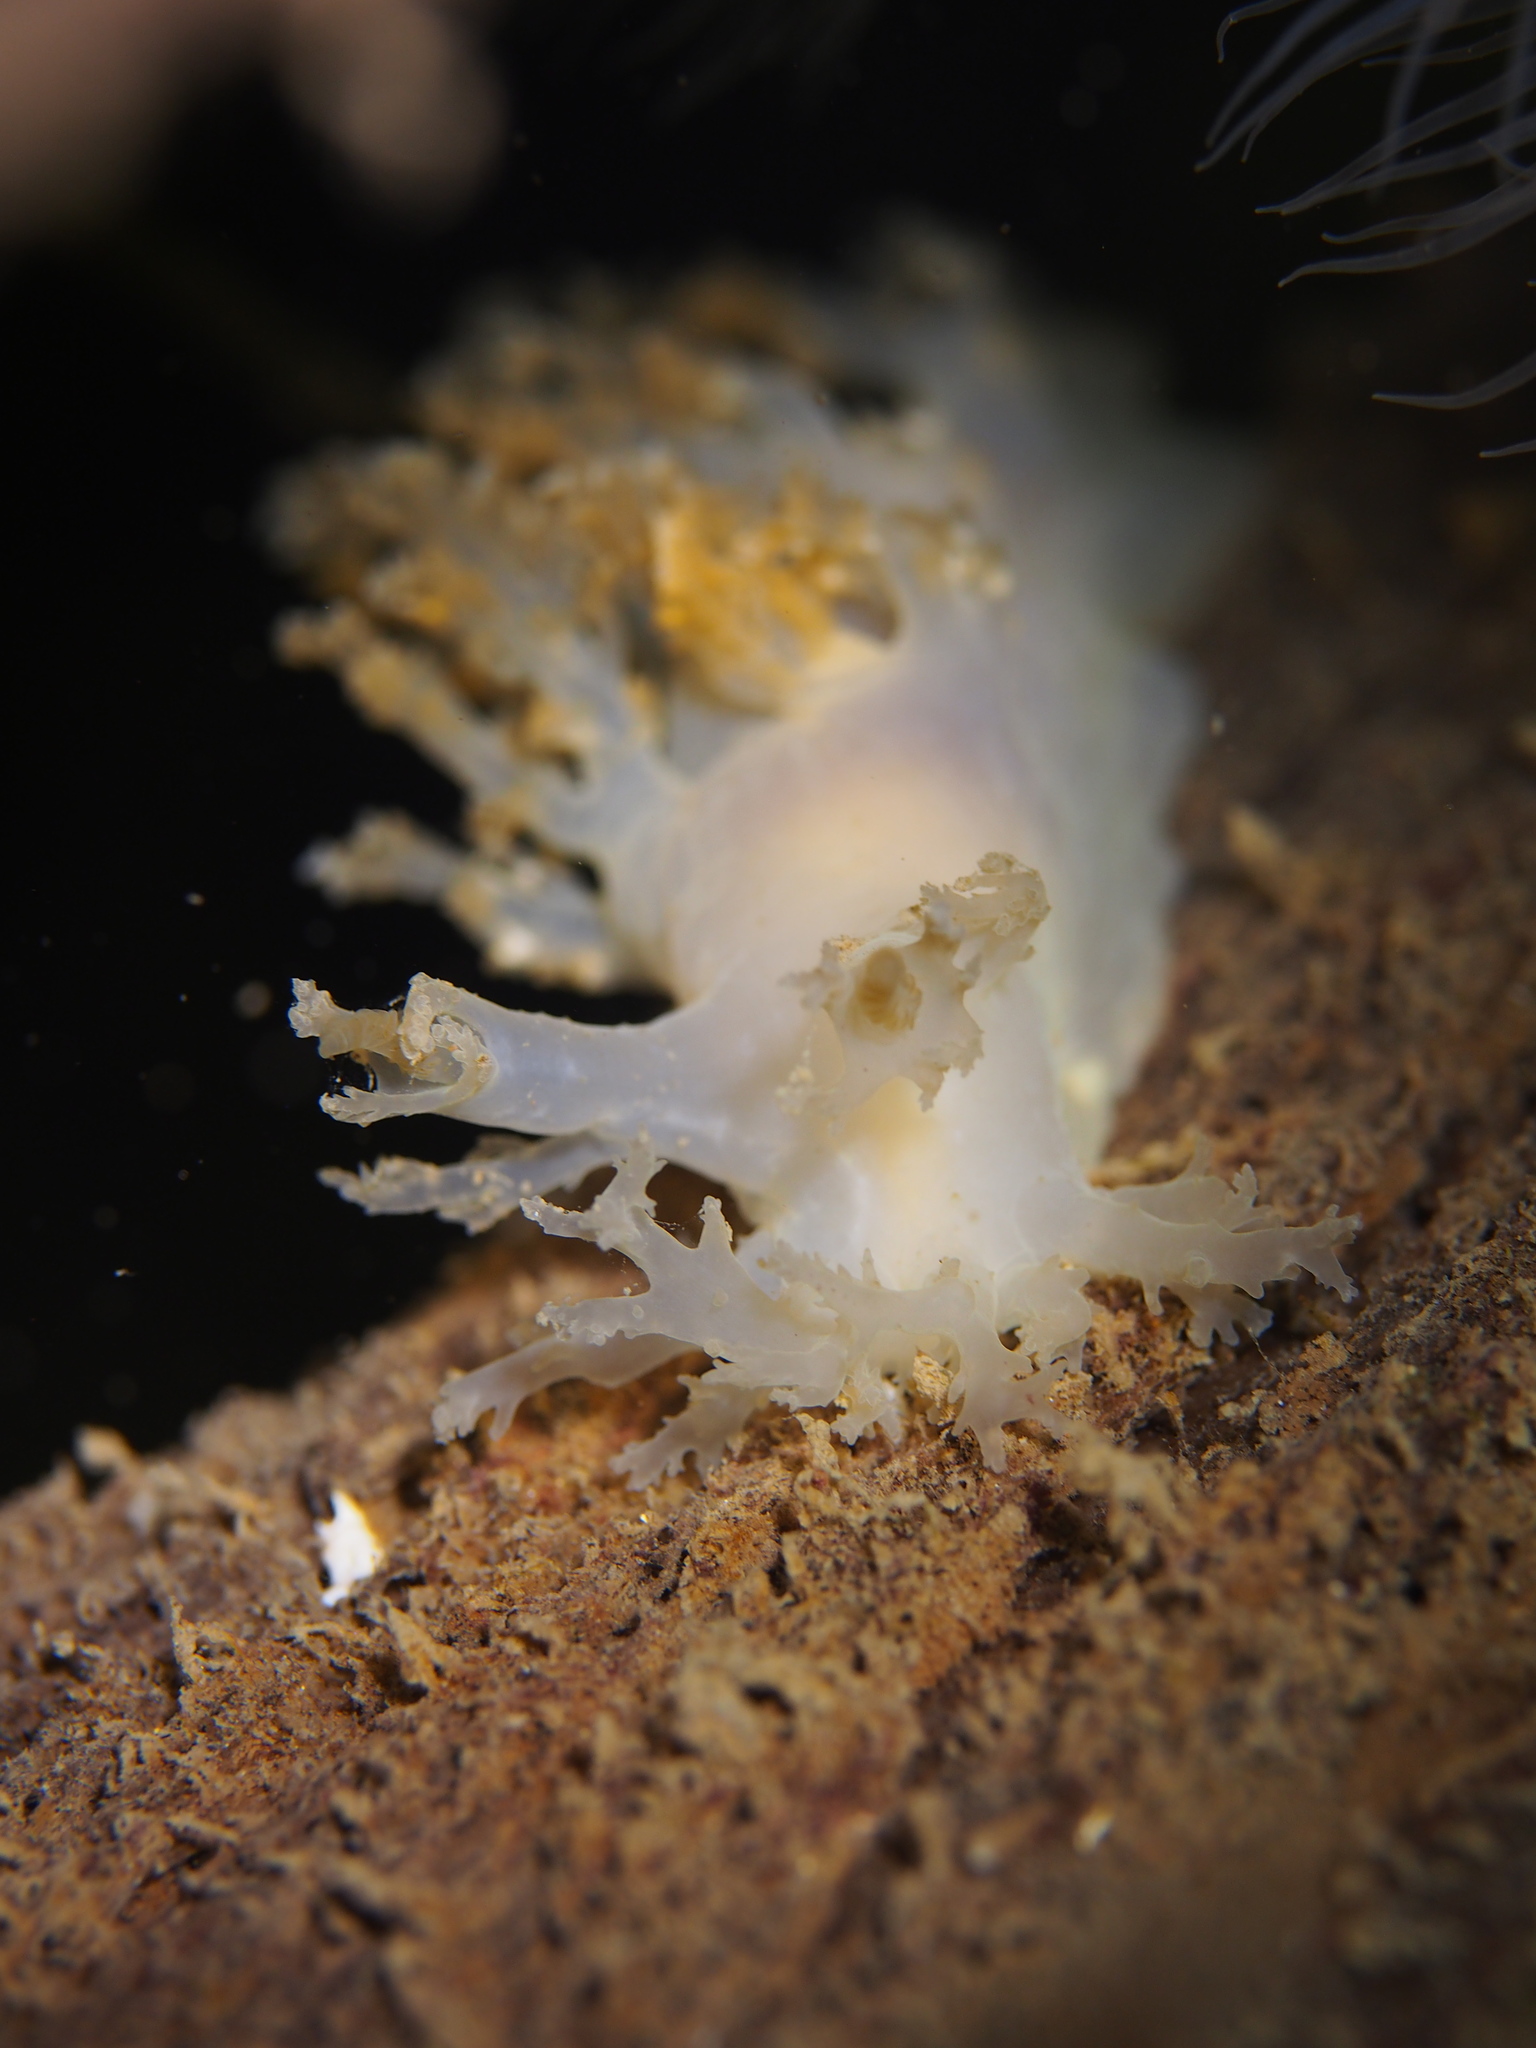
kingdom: Animalia
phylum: Mollusca
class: Gastropoda
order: Nudibranchia
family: Dendronotidae
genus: Dendronotus
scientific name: Dendronotus lacteus
